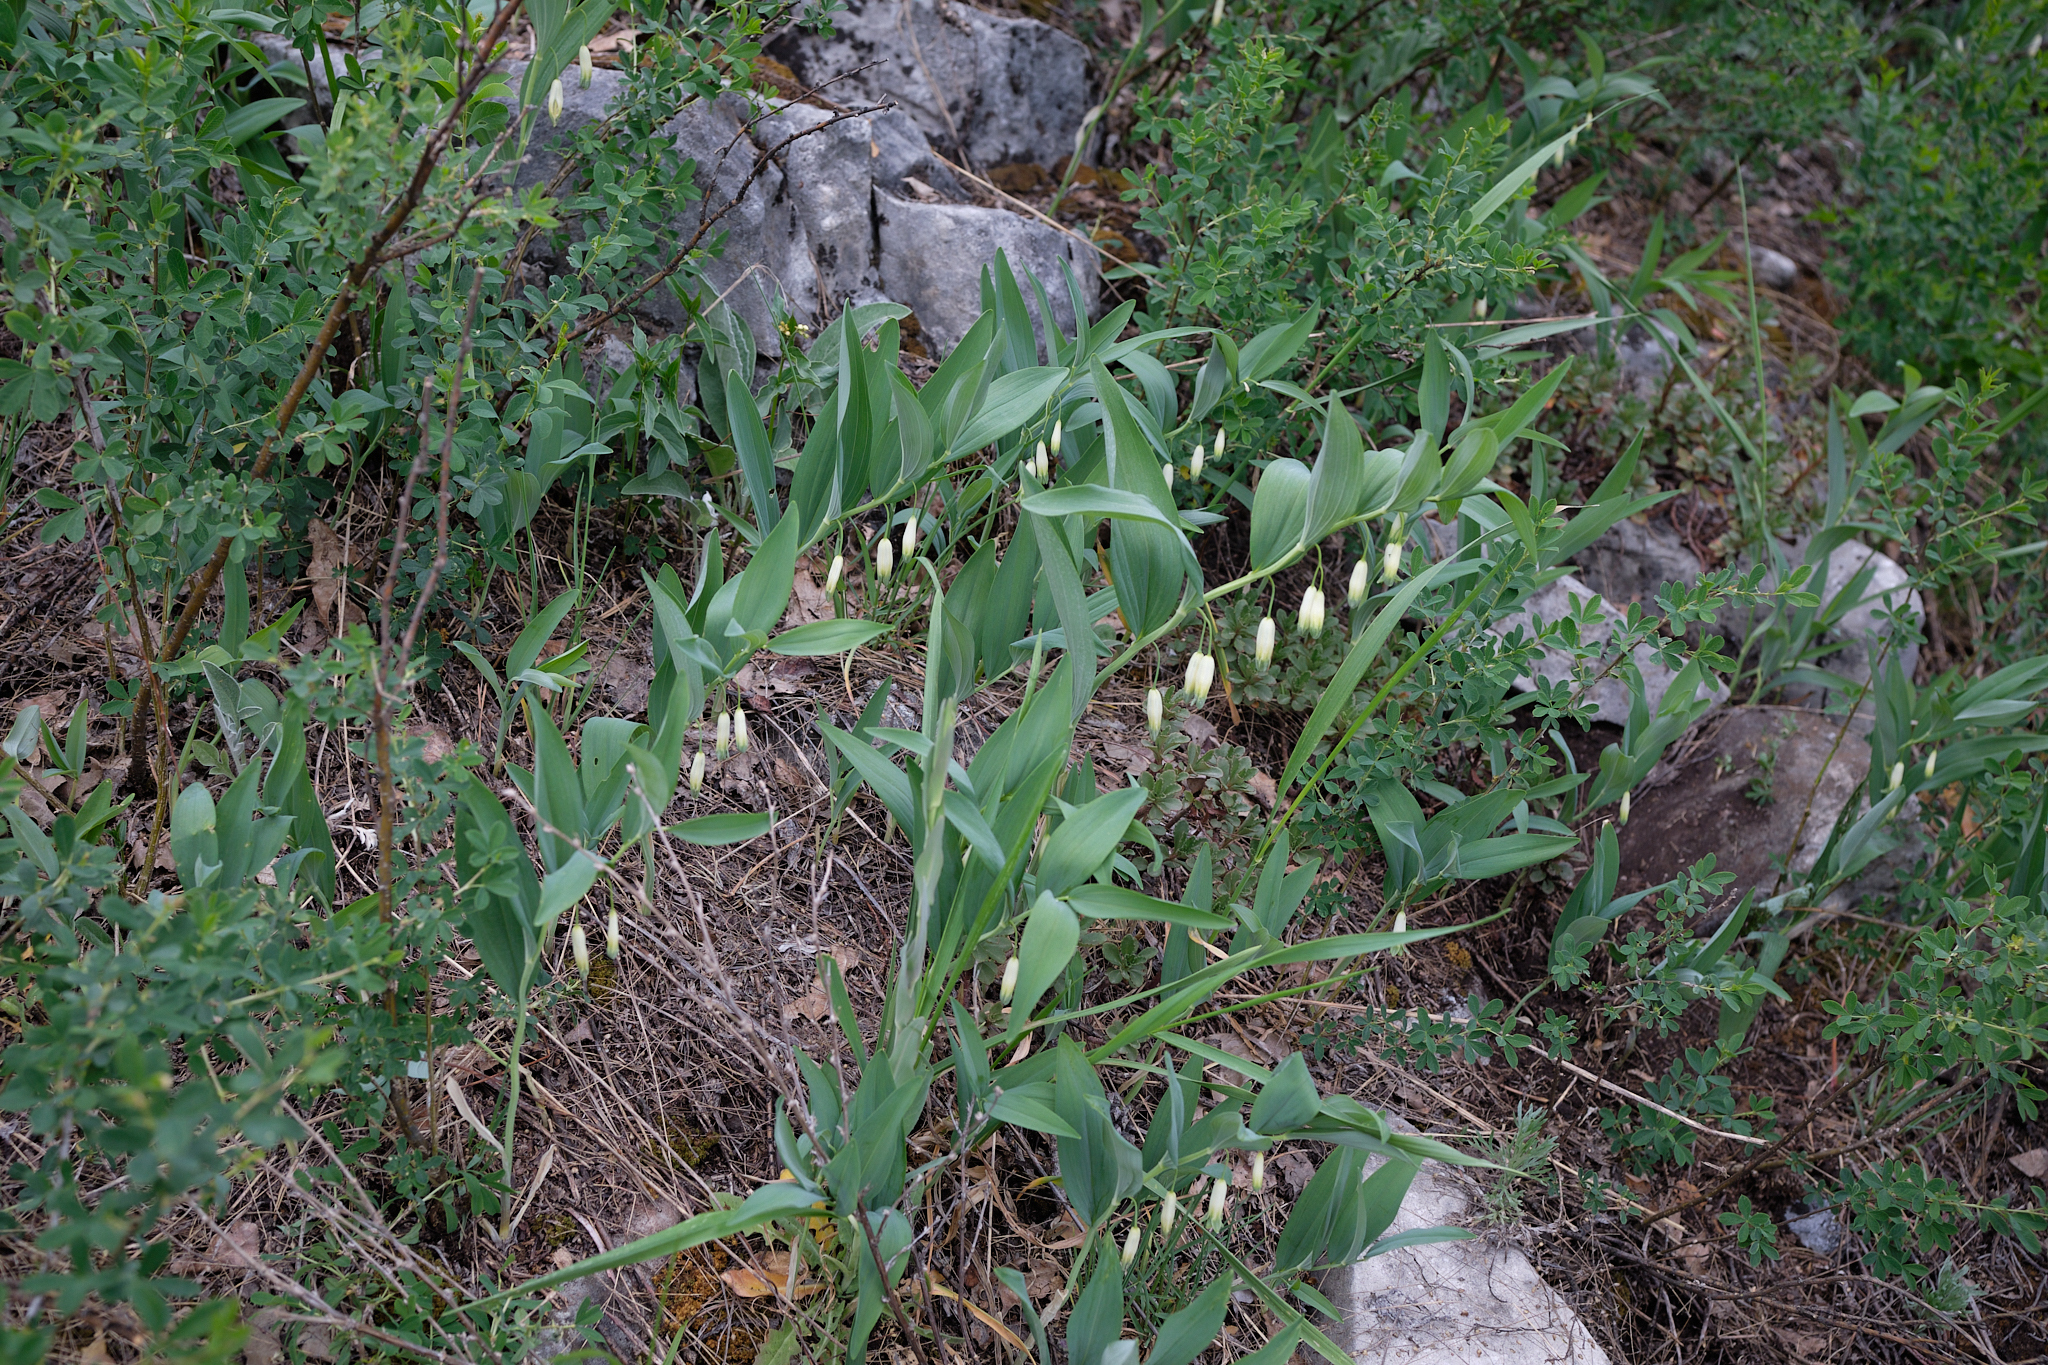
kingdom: Plantae
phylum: Tracheophyta
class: Liliopsida
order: Asparagales
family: Asparagaceae
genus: Polygonatum
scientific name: Polygonatum odoratum
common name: Angular solomon's-seal
